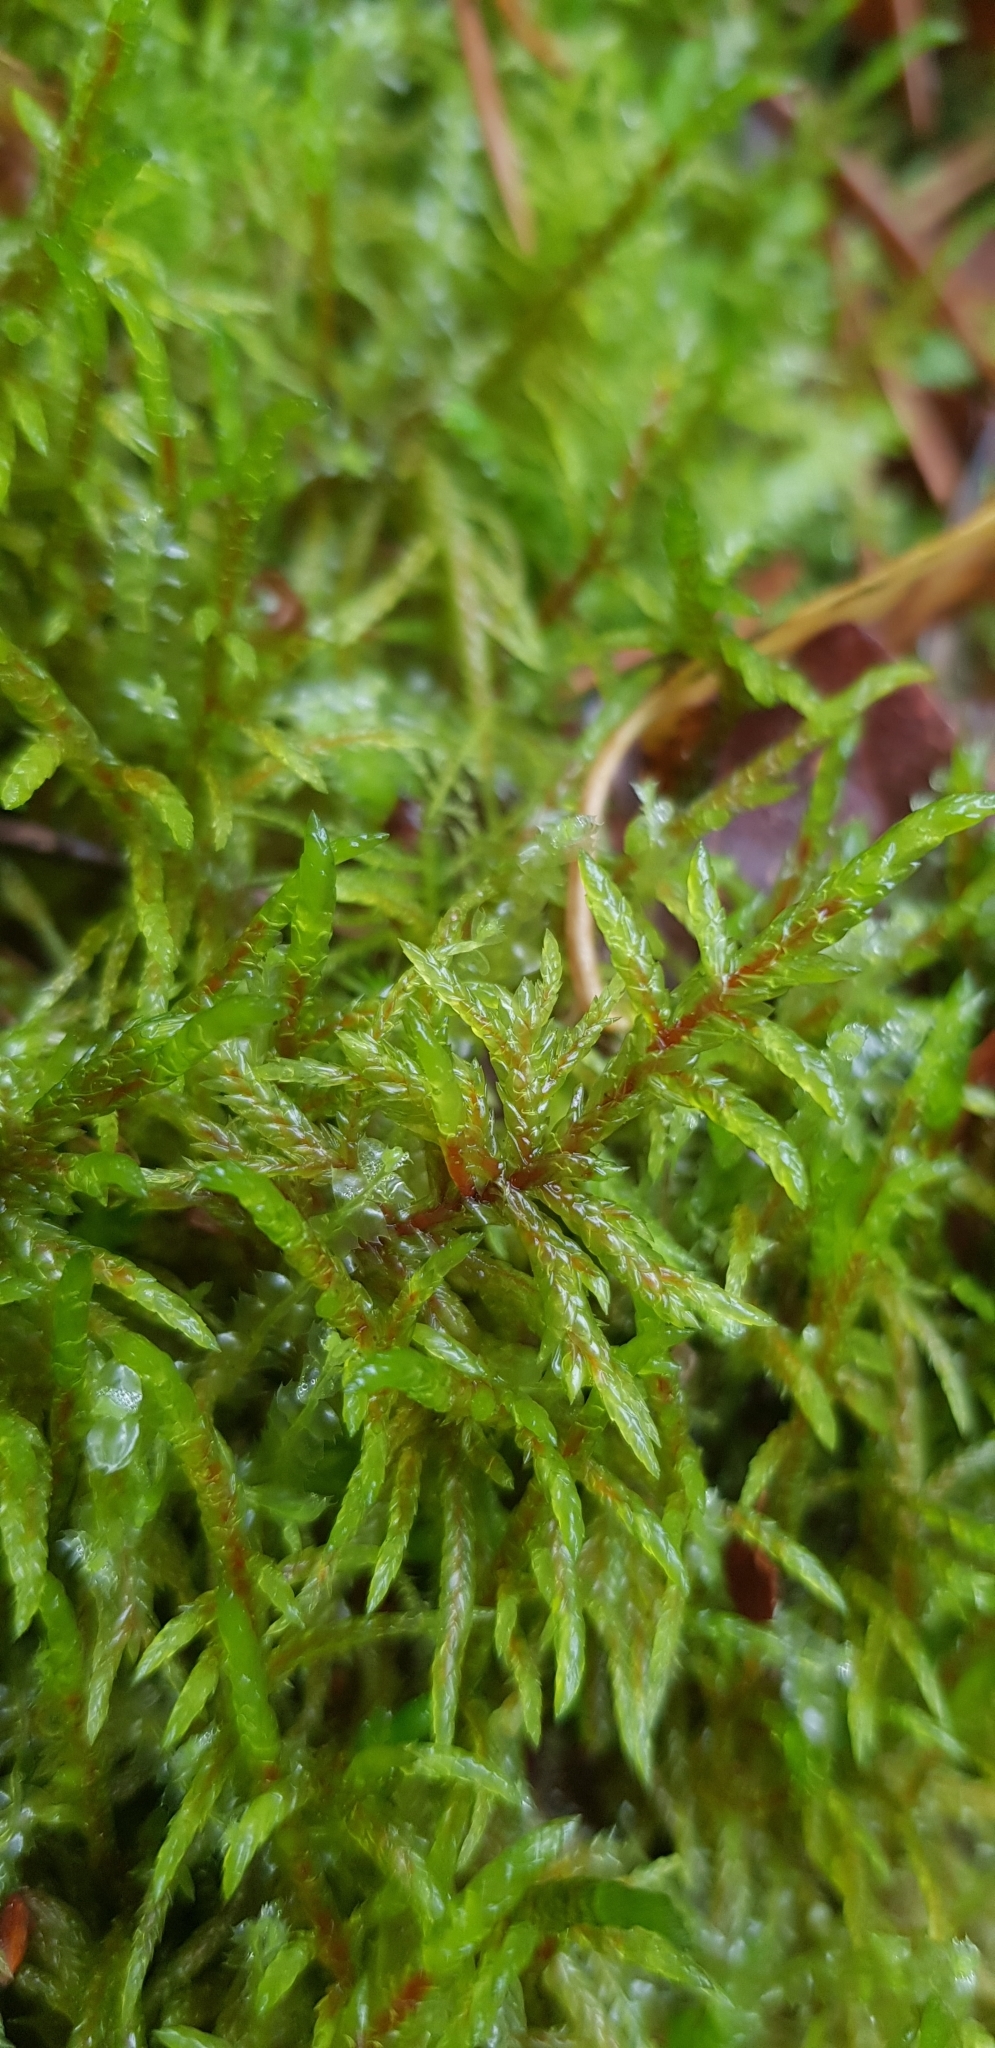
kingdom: Plantae
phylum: Bryophyta
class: Bryopsida
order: Hypnales
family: Hylocomiaceae
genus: Pleurozium
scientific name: Pleurozium schreberi
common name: Red-stemmed feather moss
